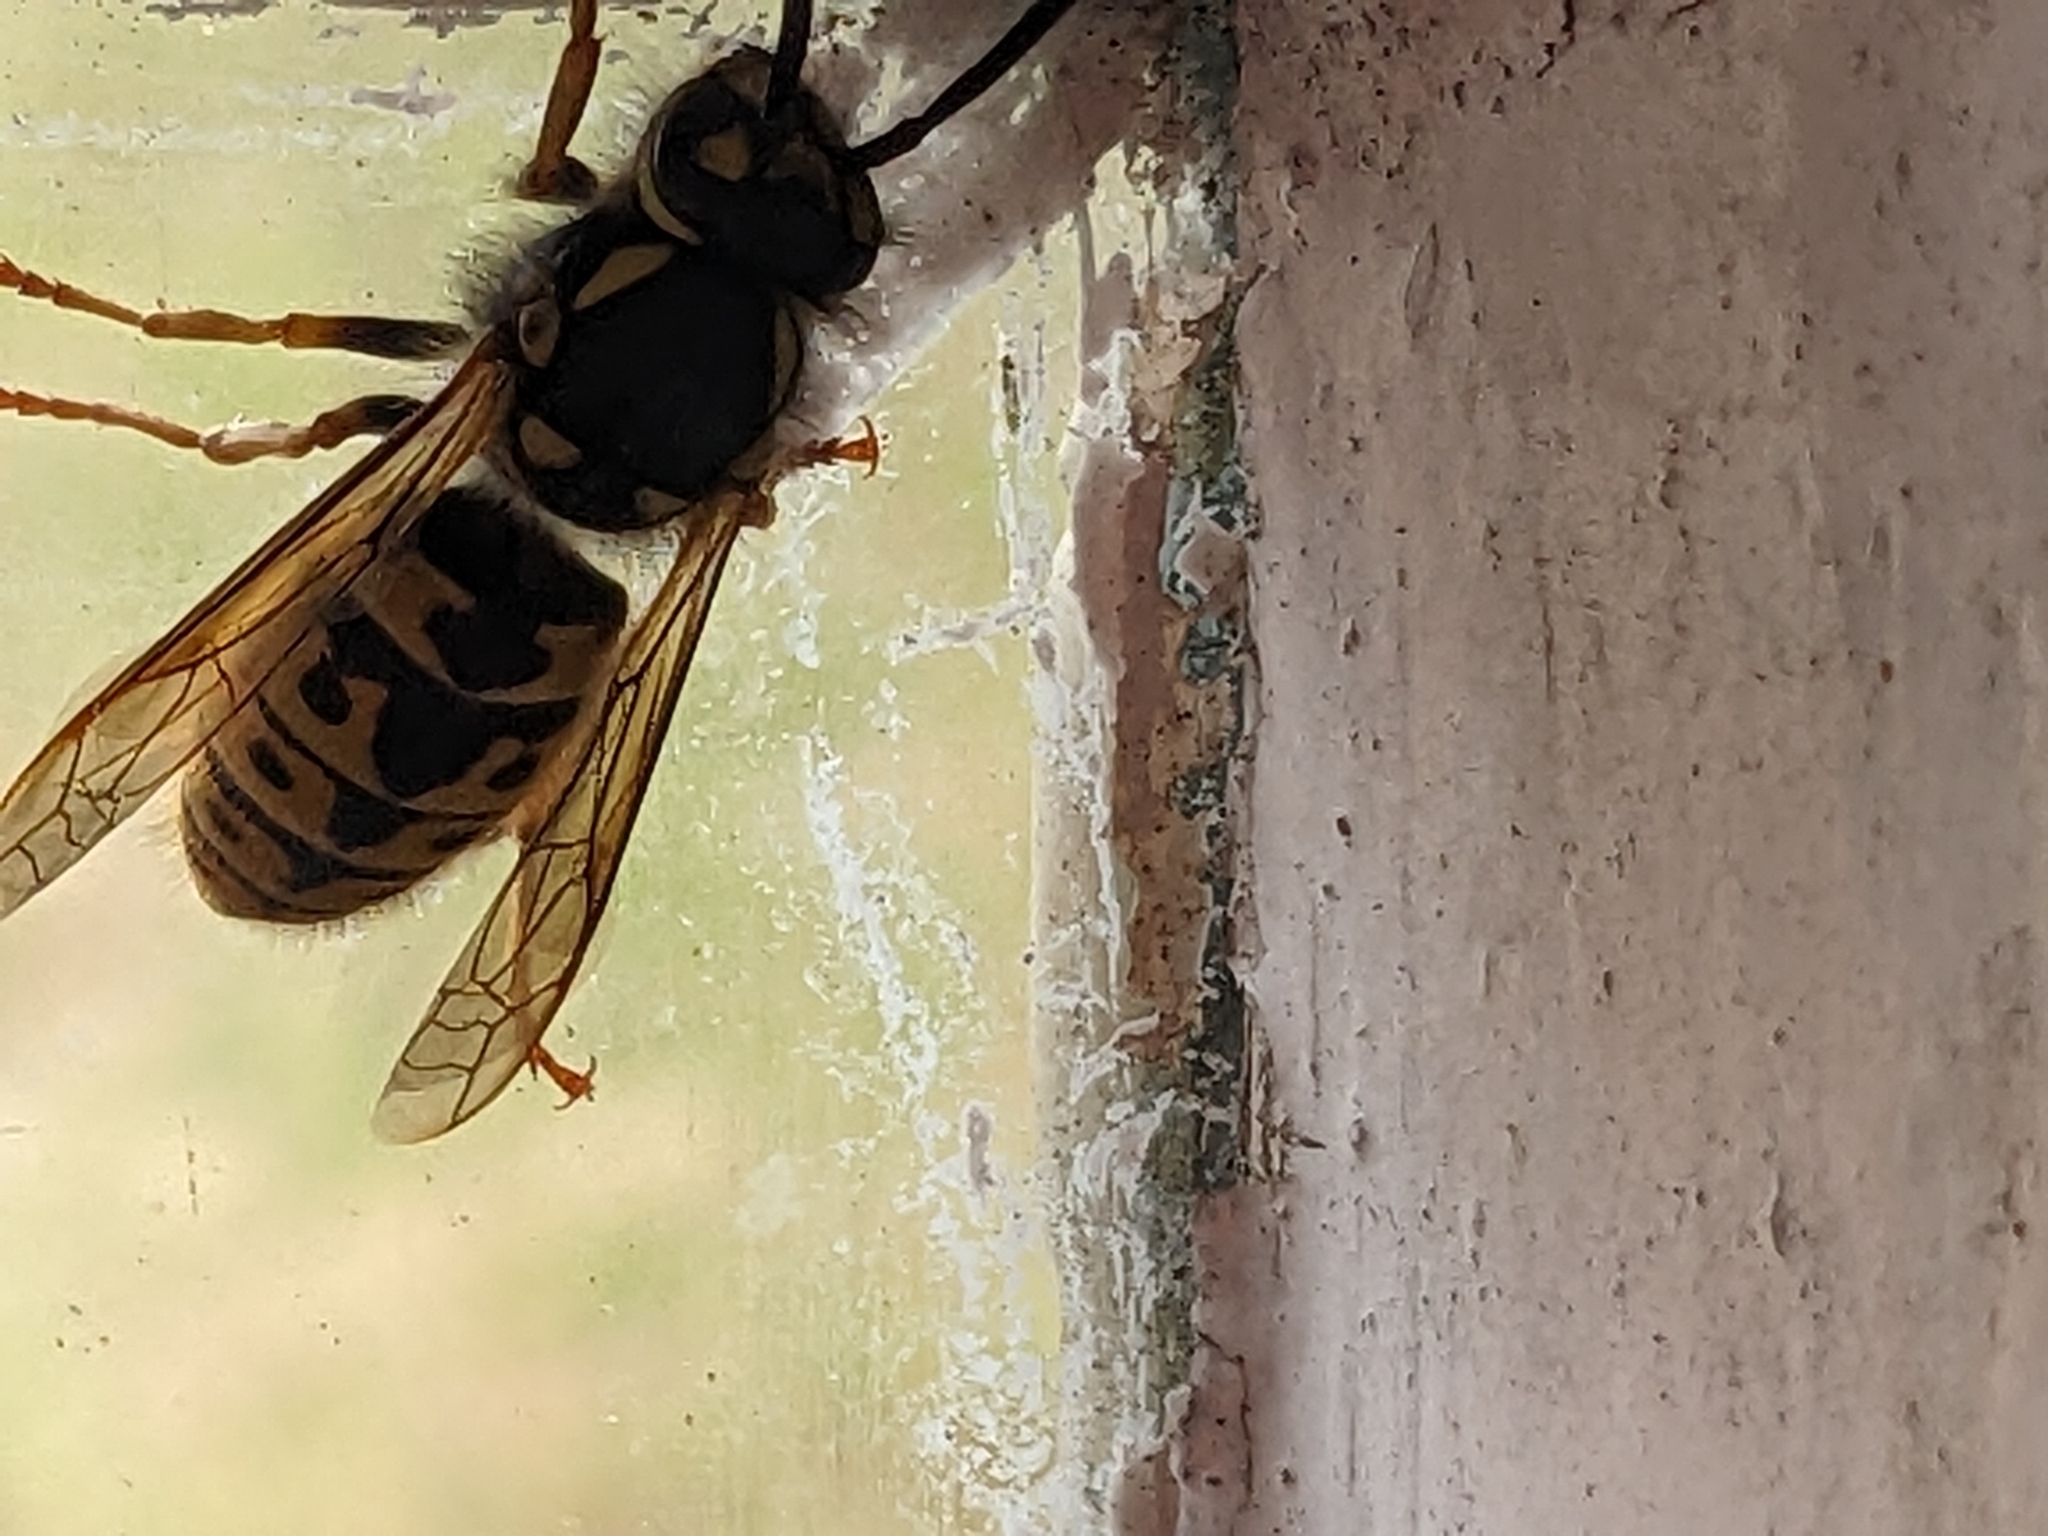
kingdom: Animalia
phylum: Arthropoda
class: Insecta
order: Hymenoptera
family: Vespidae
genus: Vespula
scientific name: Vespula germanica
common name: German wasp
